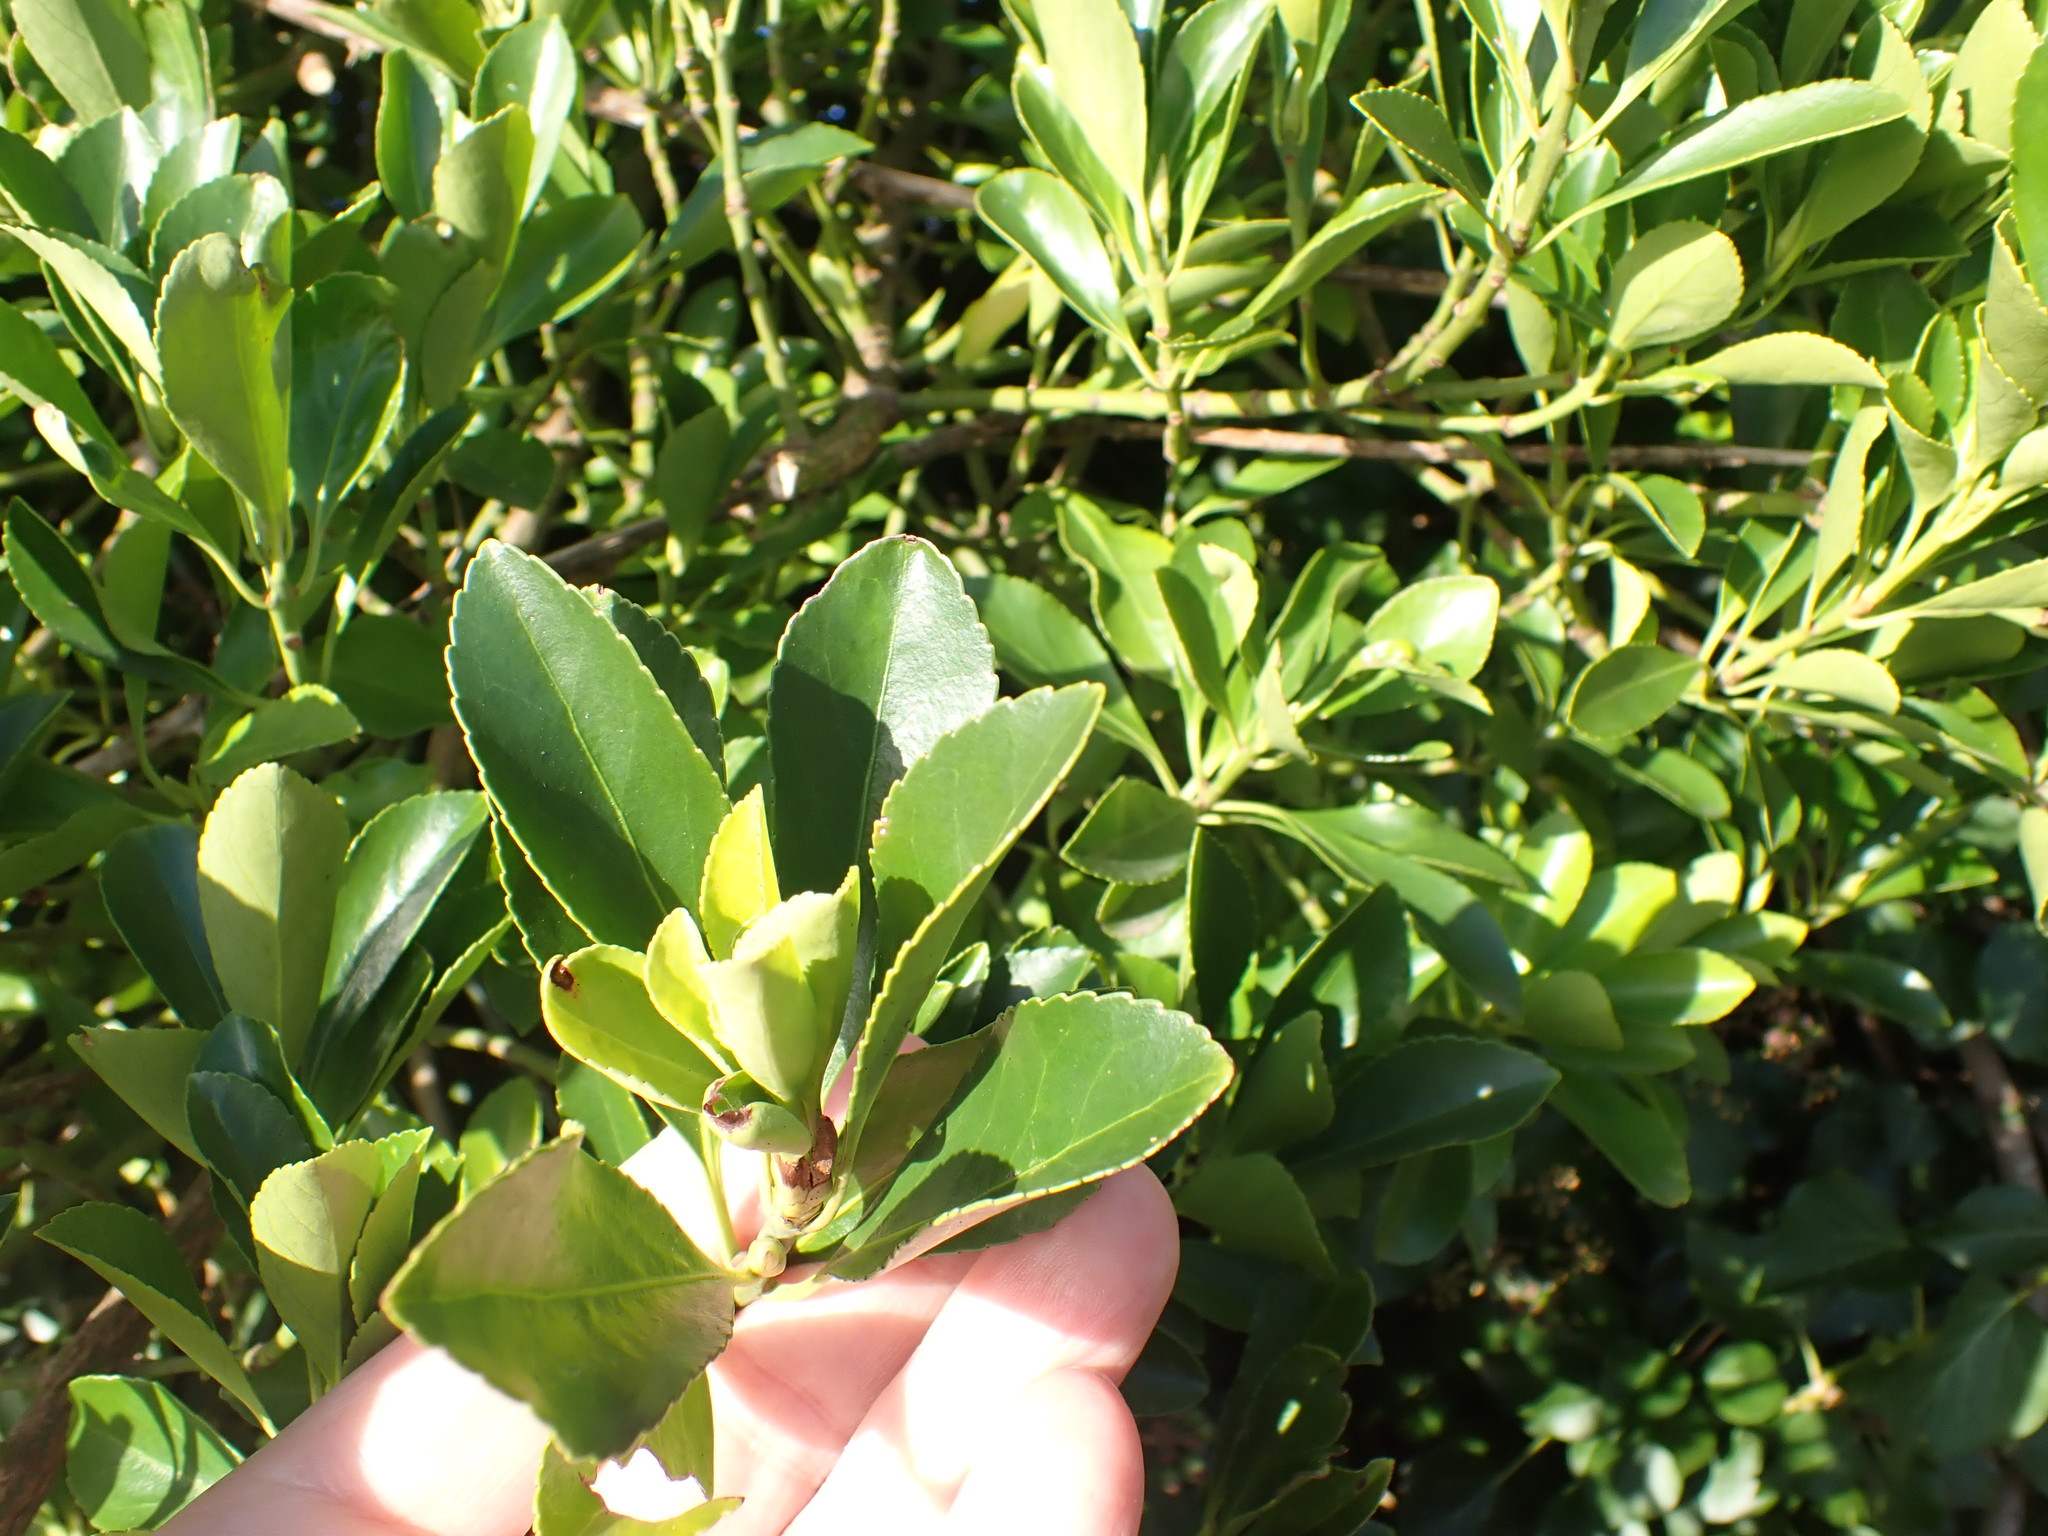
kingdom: Plantae
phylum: Tracheophyta
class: Magnoliopsida
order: Celastrales
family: Celastraceae
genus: Euonymus
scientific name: Euonymus japonicus
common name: Japanese spindletree
